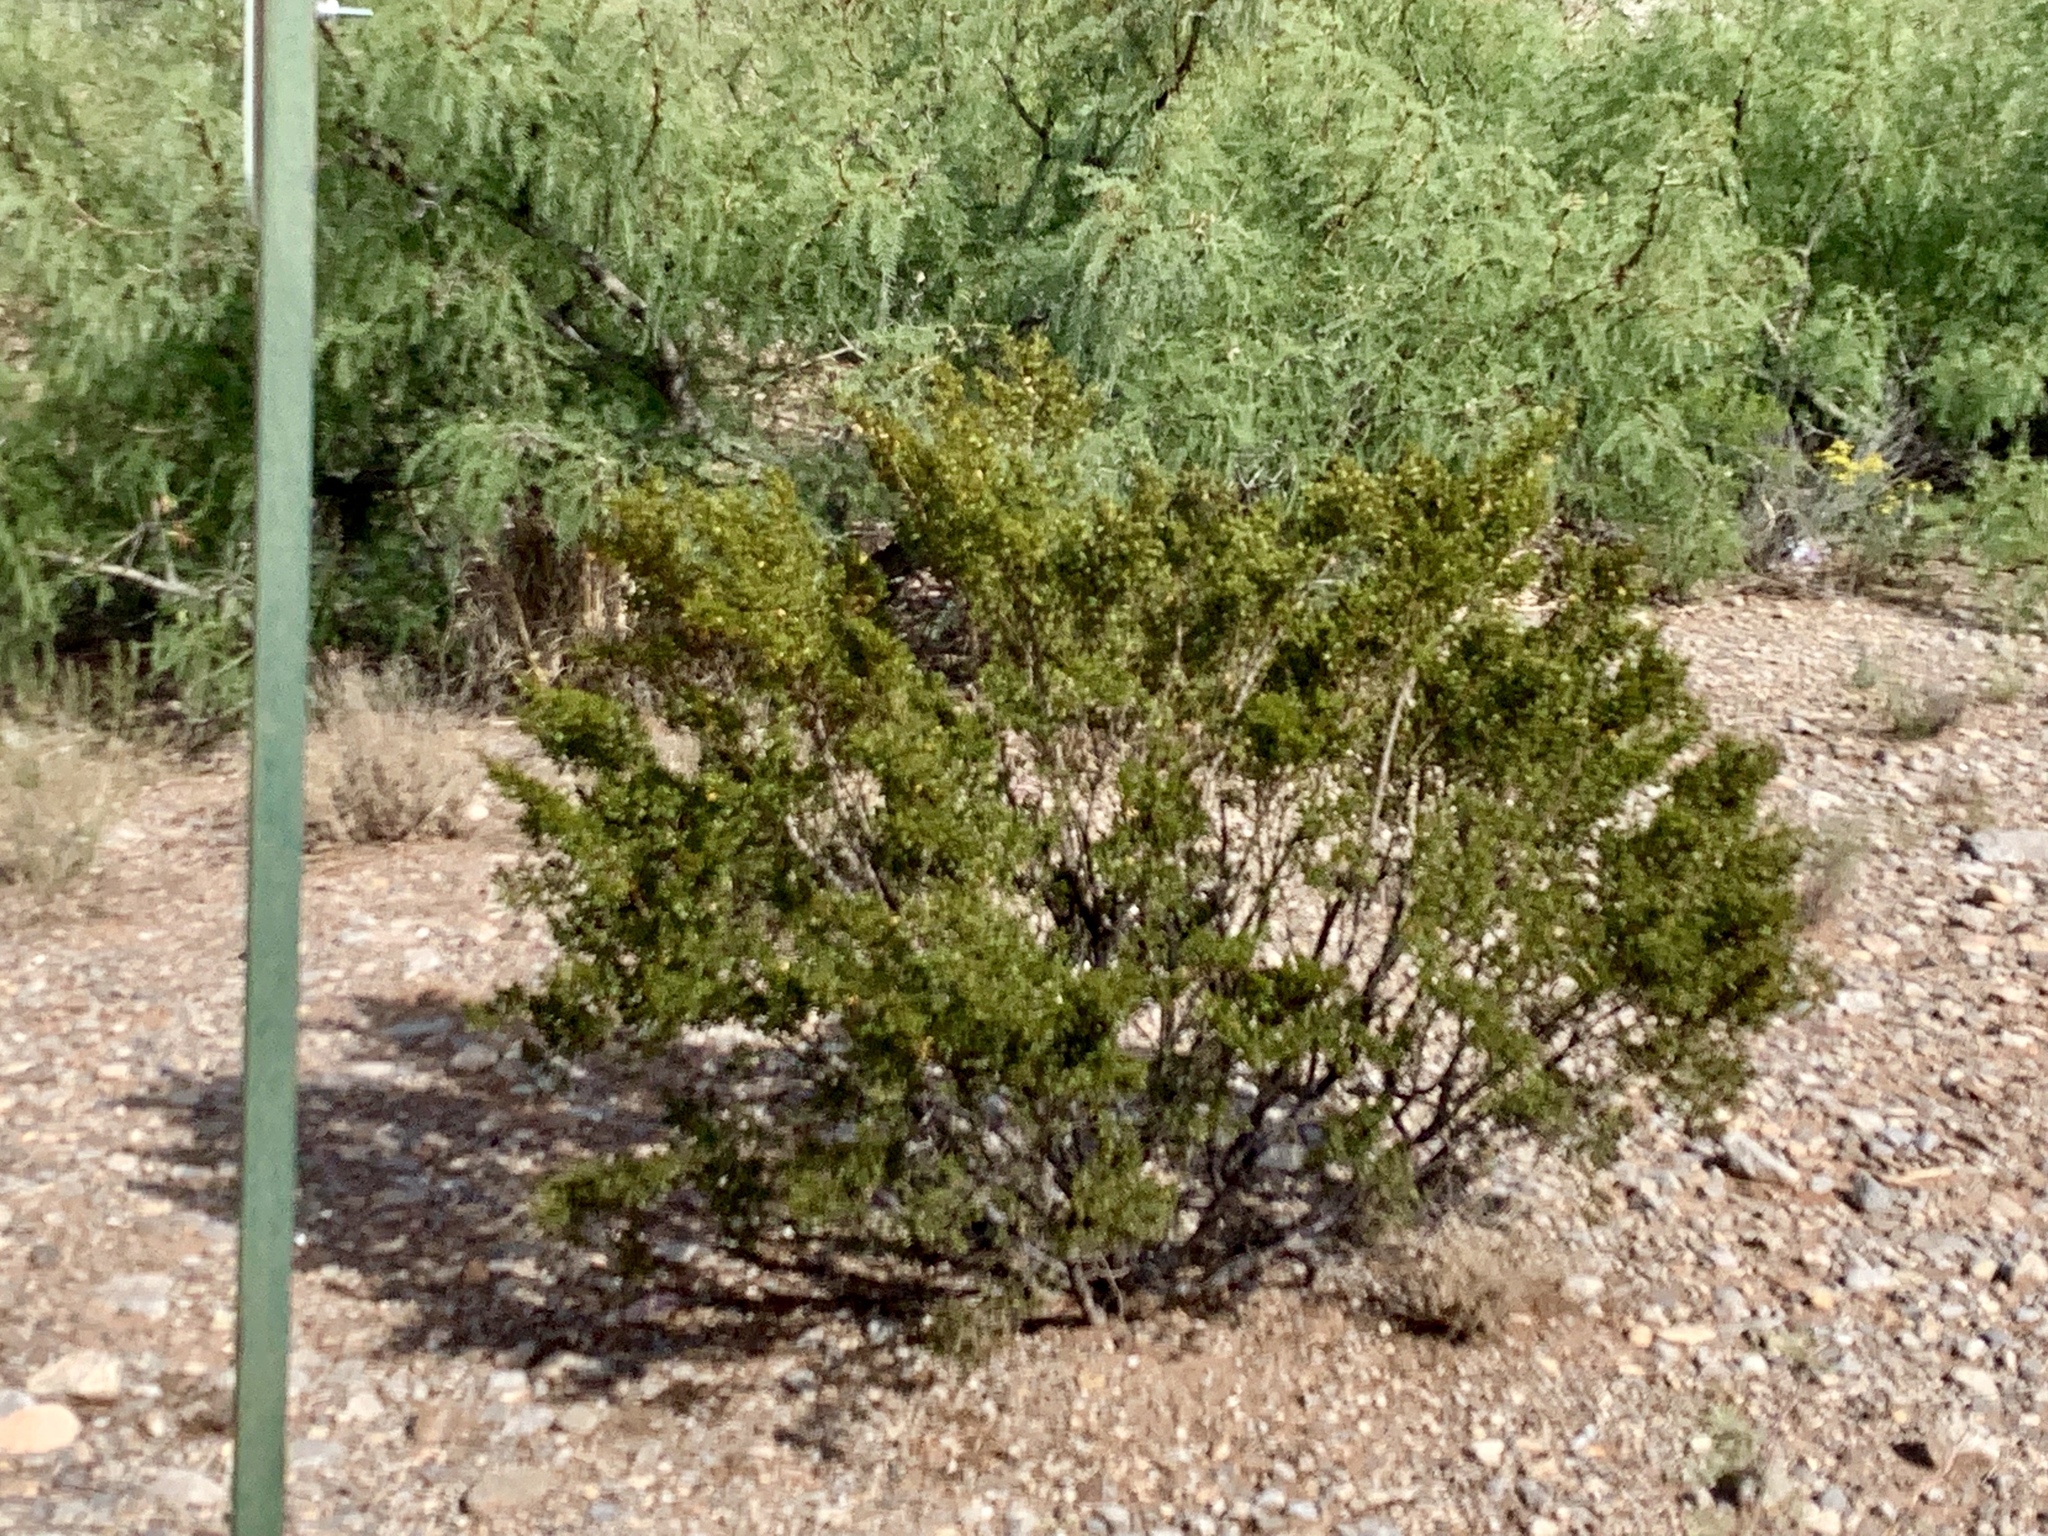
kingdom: Plantae
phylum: Tracheophyta
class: Magnoliopsida
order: Zygophyllales
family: Zygophyllaceae
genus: Larrea
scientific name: Larrea tridentata
